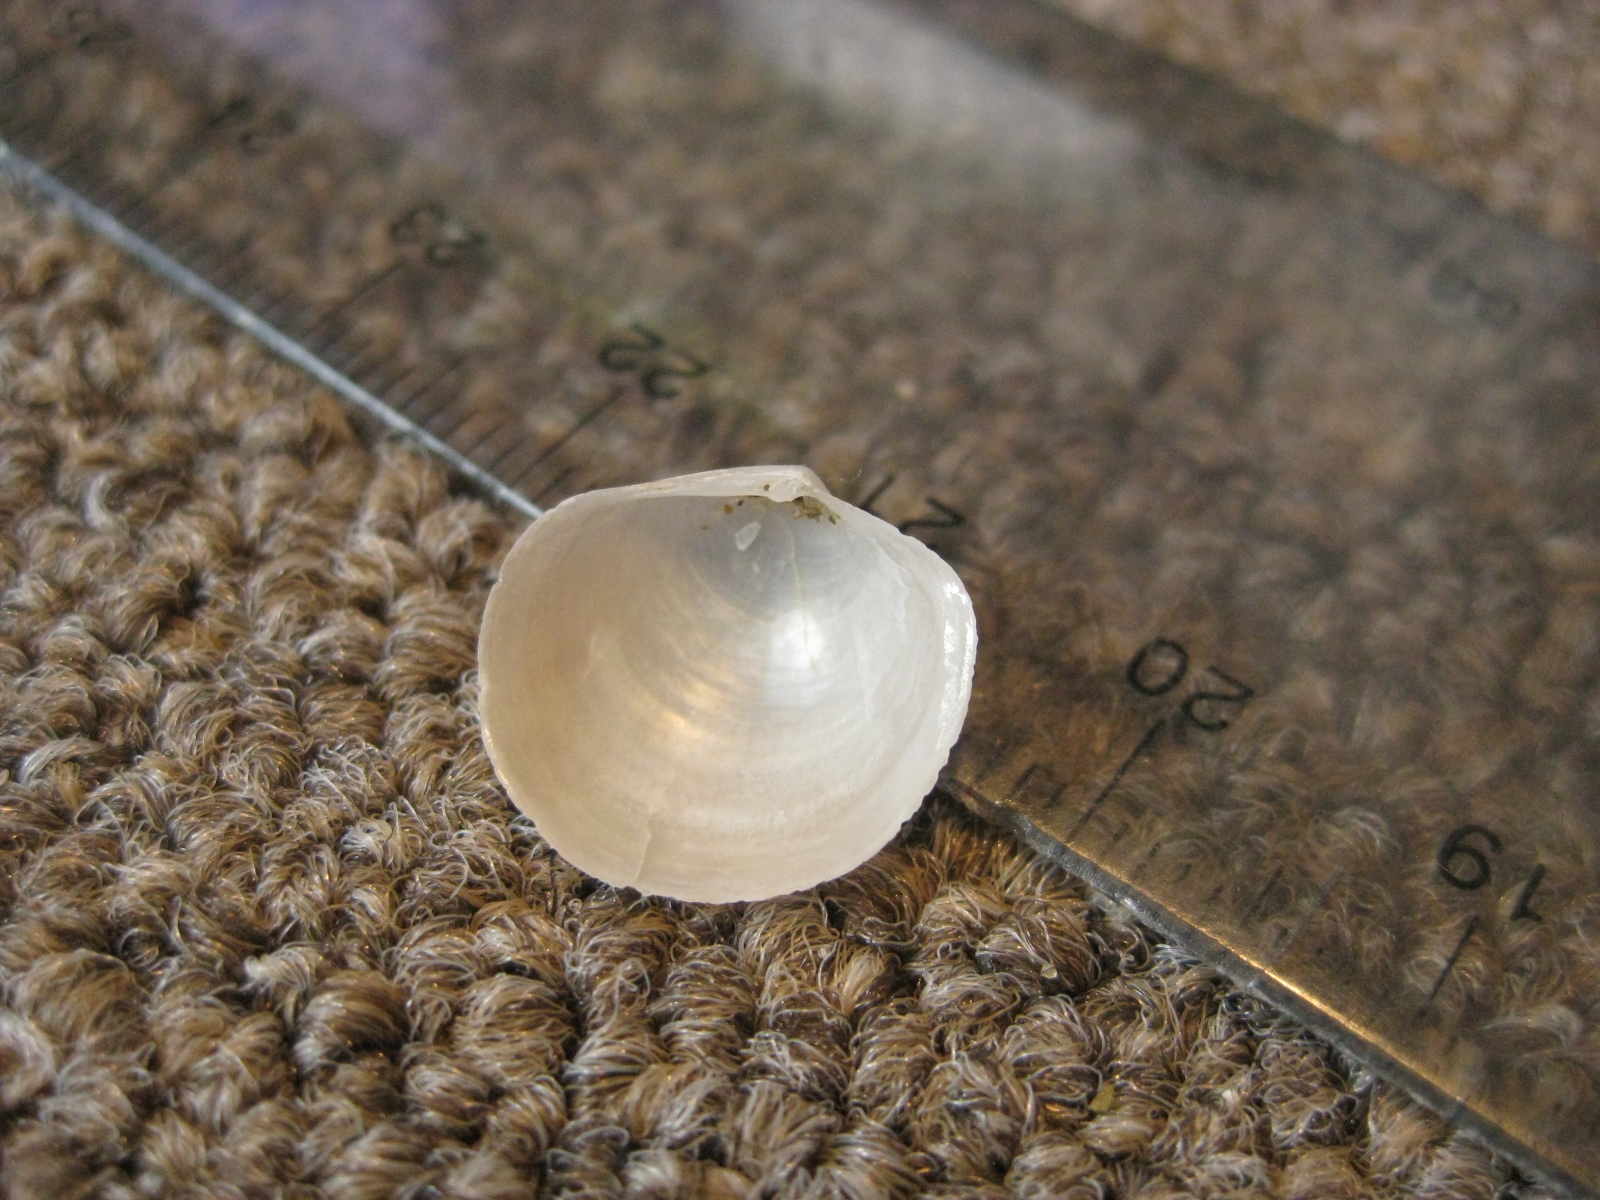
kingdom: Animalia
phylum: Mollusca
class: Bivalvia
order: Venerida
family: Ungulinidae
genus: Zemysina
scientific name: Zemysina striatula
